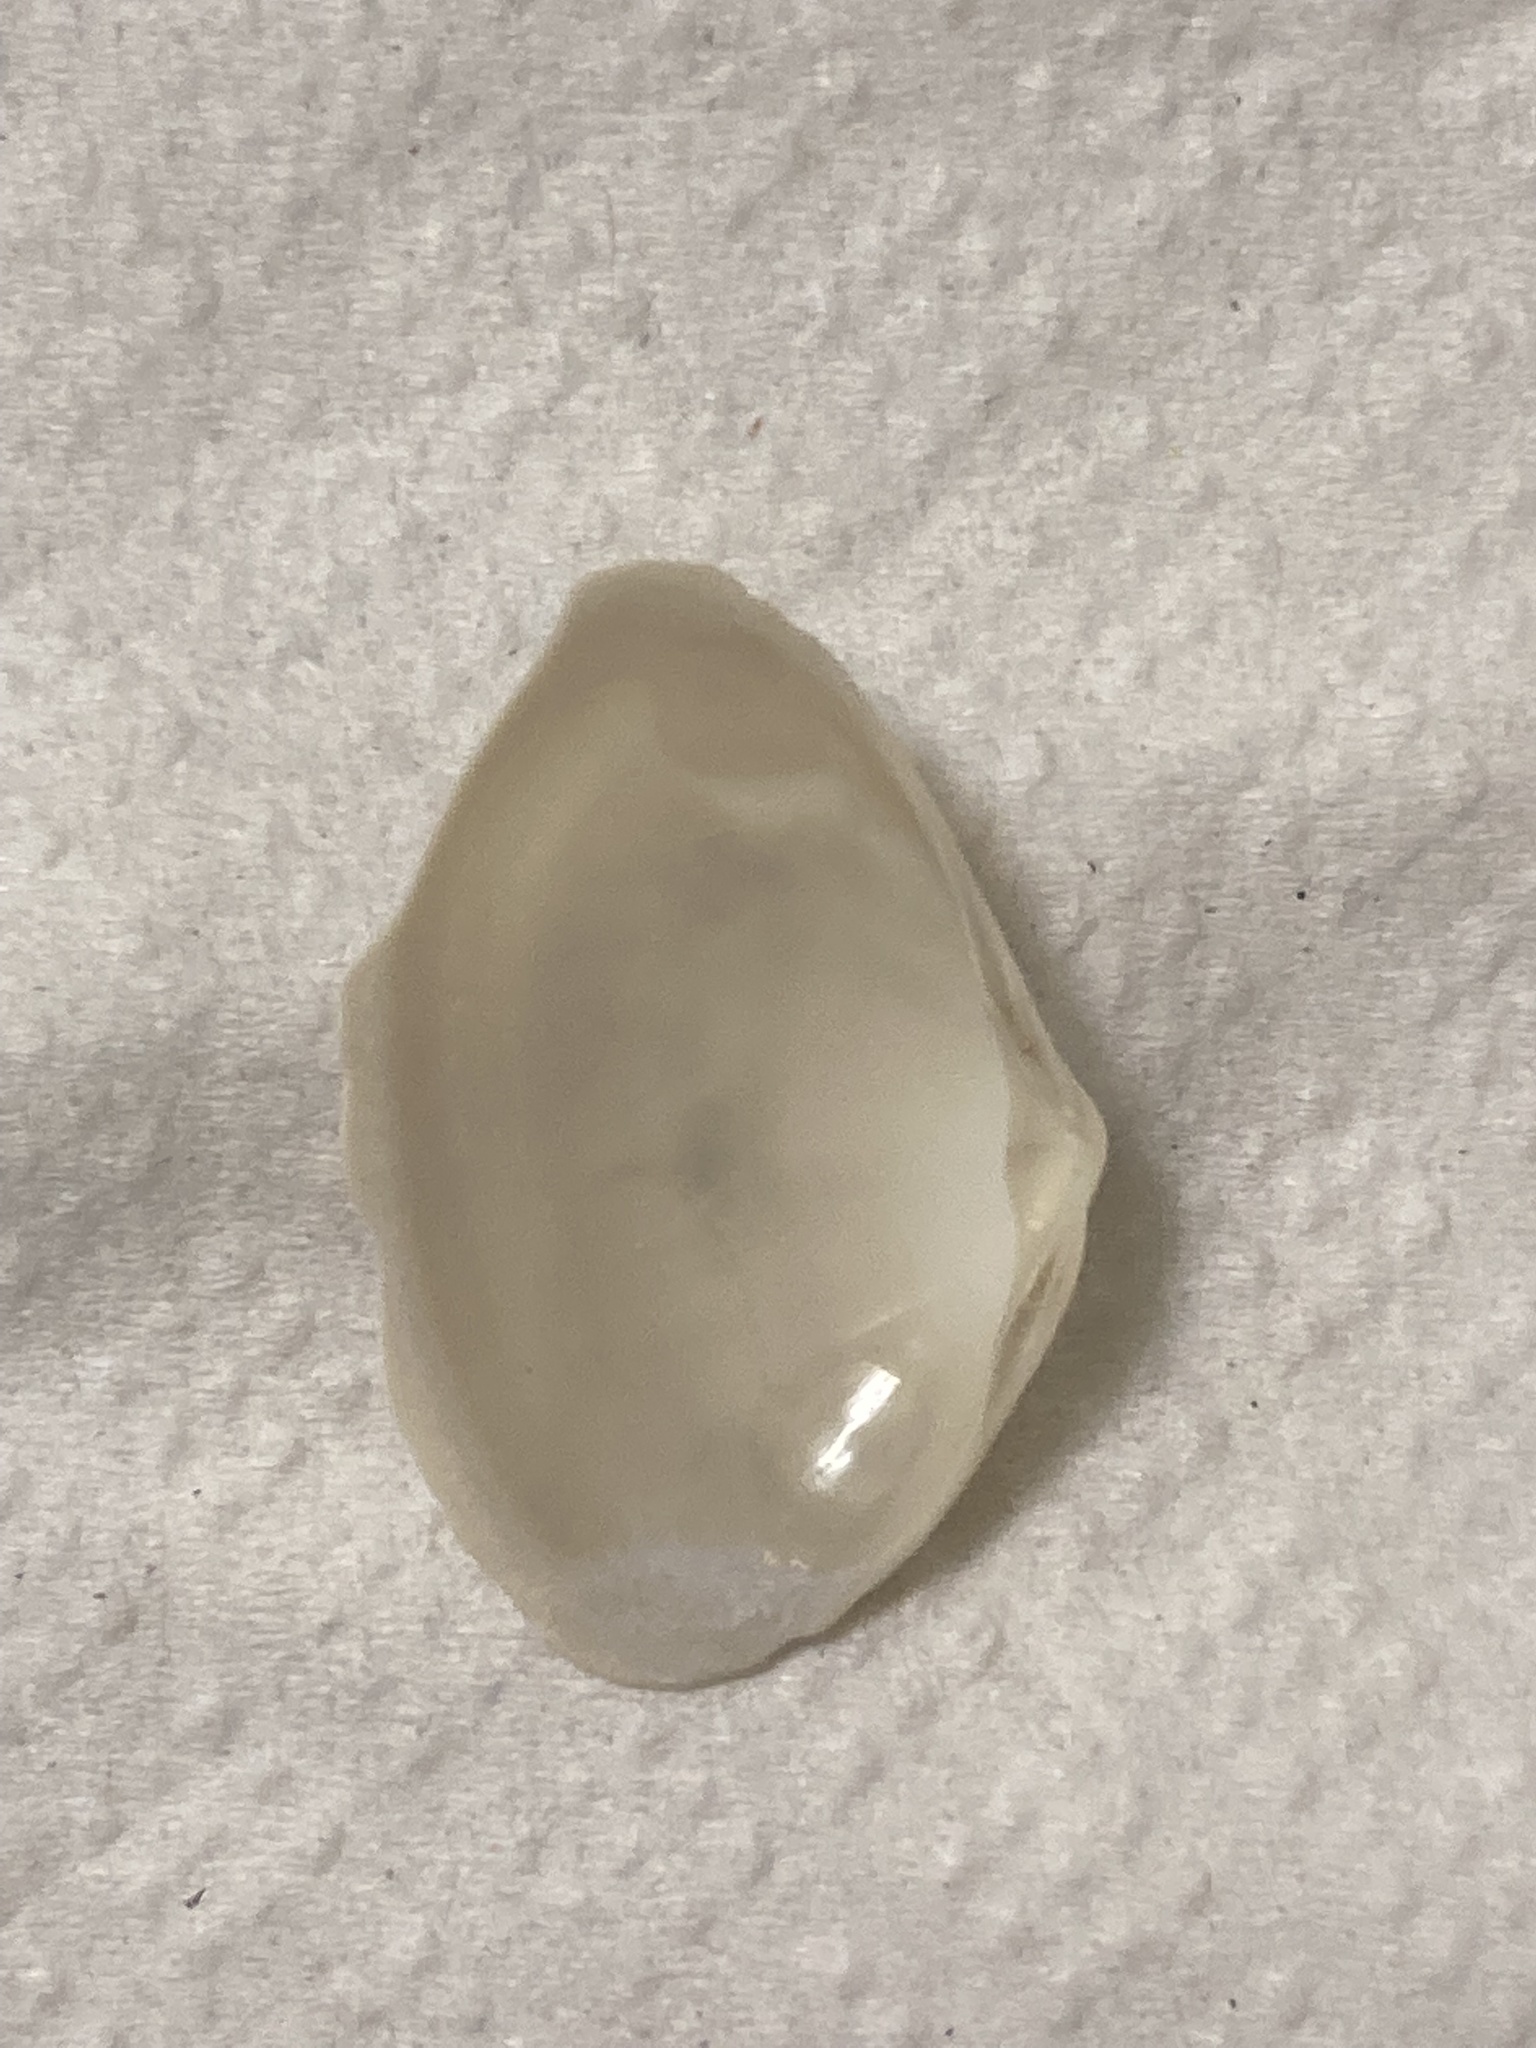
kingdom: Animalia
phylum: Mollusca
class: Bivalvia
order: Venerida
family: Mactridae
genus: Simomactra
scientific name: Simomactra falcata
